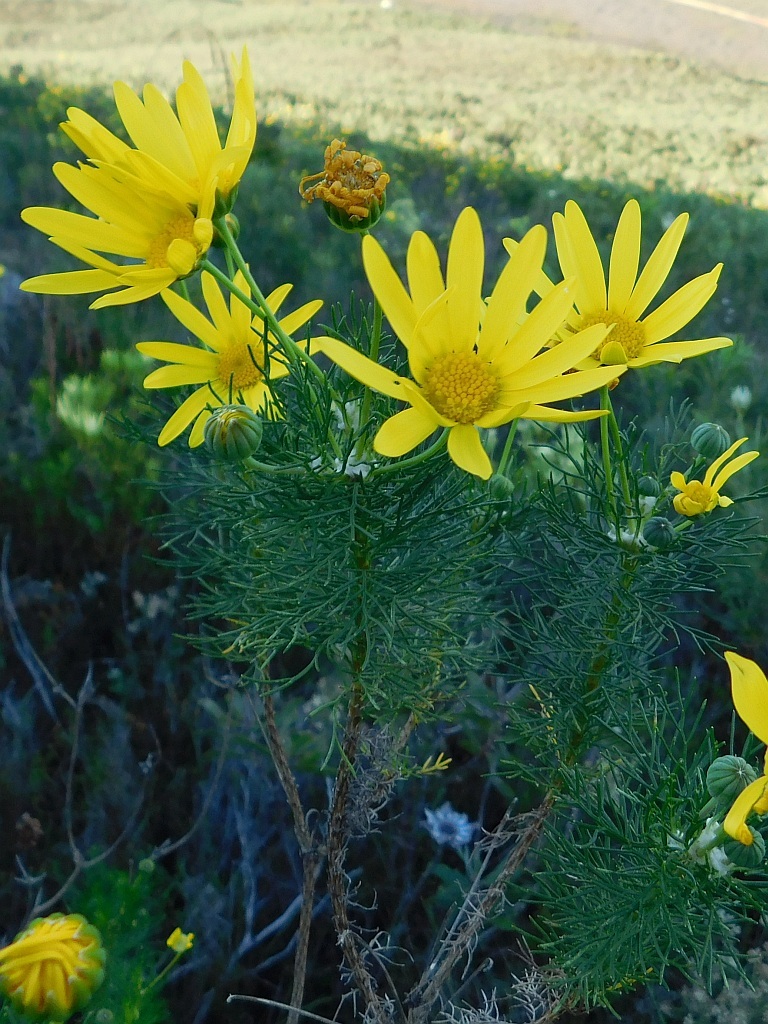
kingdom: Plantae
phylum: Tracheophyta
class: Magnoliopsida
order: Asterales
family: Asteraceae
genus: Euryops
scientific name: Euryops abrotanifolius
